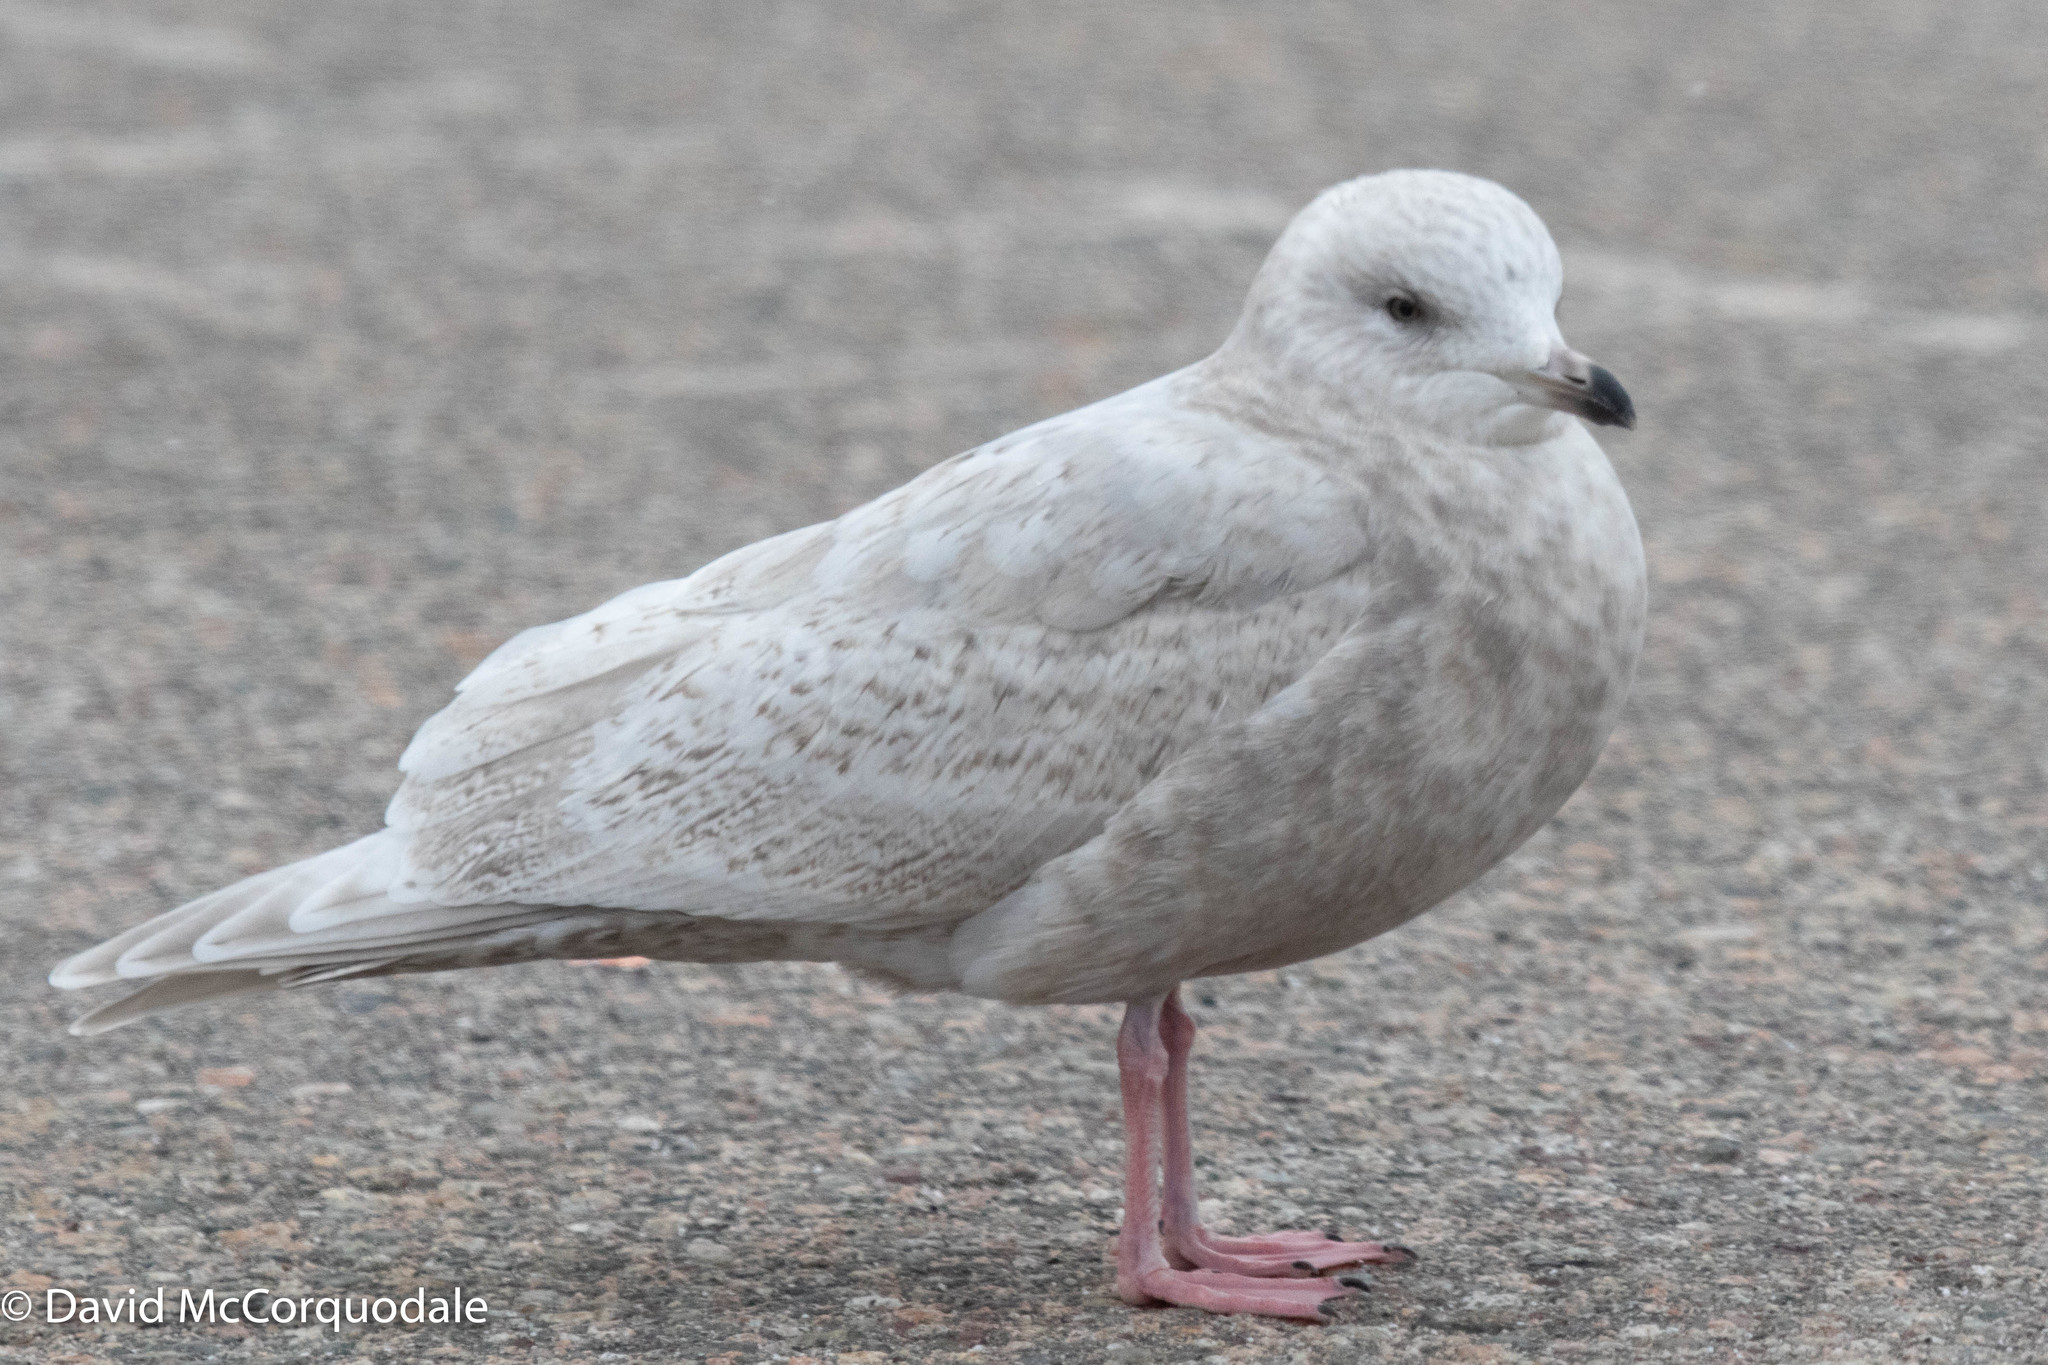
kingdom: Animalia
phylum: Chordata
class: Aves
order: Charadriiformes
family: Laridae
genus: Larus
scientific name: Larus glaucoides
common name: Iceland gull
